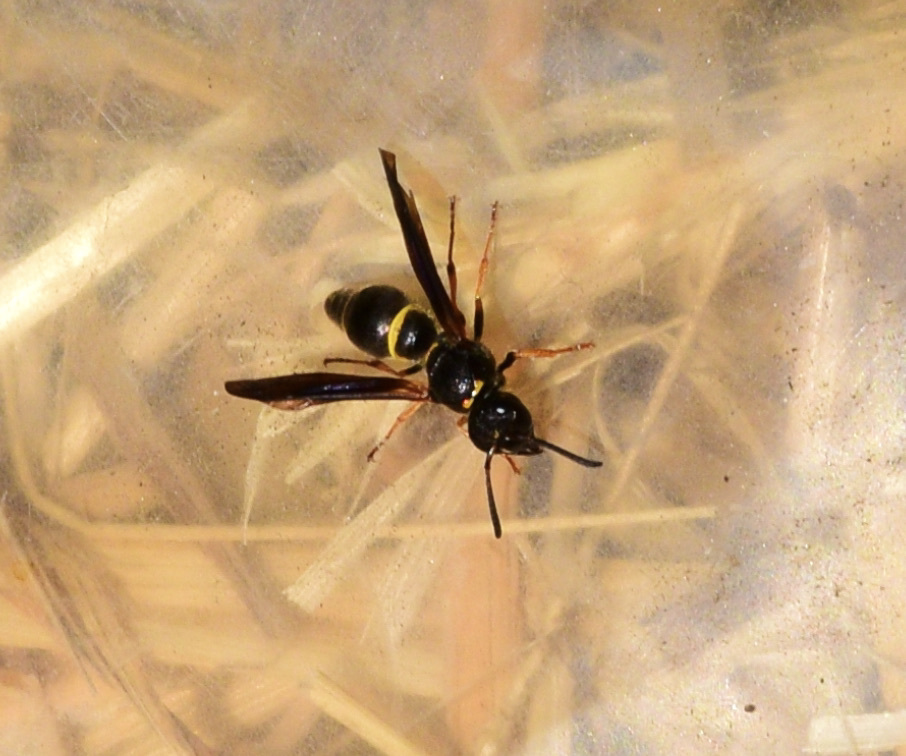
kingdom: Animalia
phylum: Arthropoda
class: Insecta
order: Hymenoptera
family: Vespidae
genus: Ancistrocerus
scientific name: Ancistrocerus unifasciatus
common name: One-banded mason wasp
